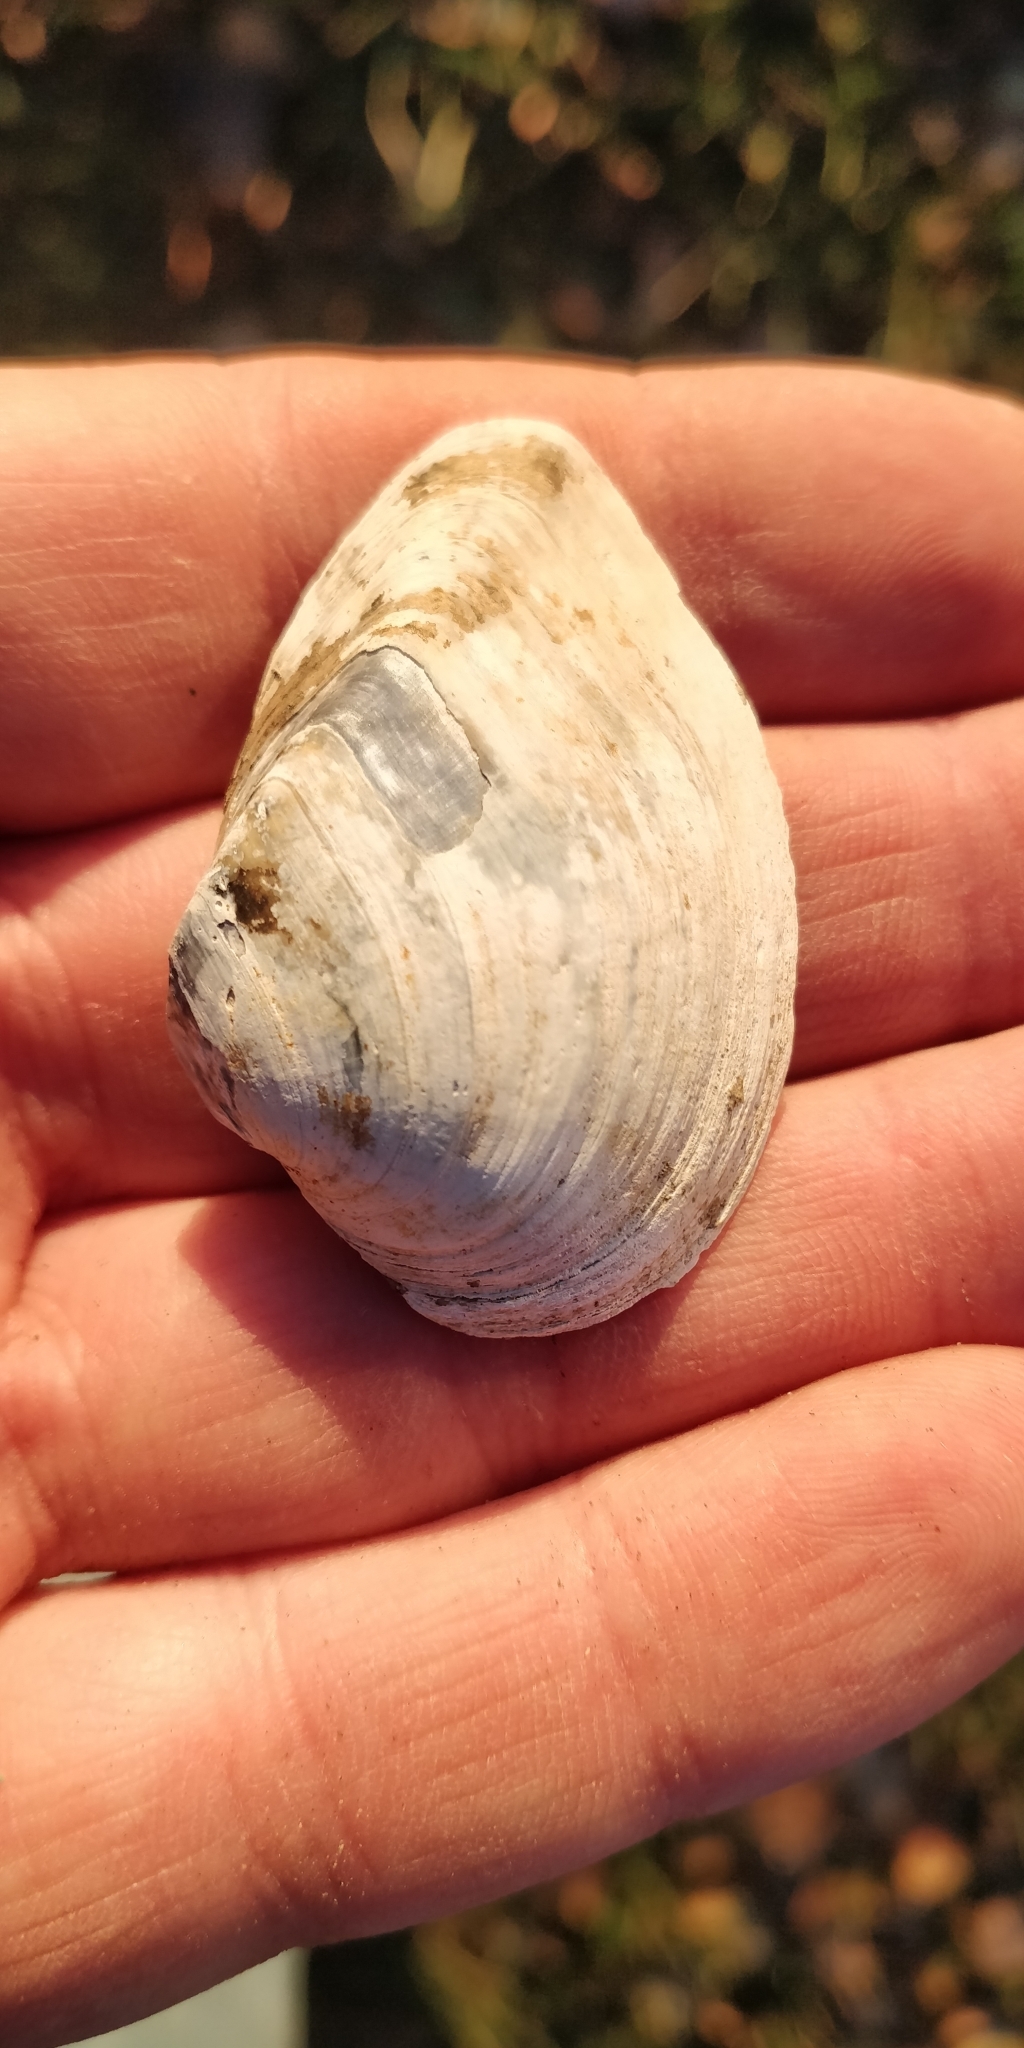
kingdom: Animalia
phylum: Mollusca
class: Bivalvia
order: Unionida
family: Unionidae
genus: Truncilla
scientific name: Truncilla truncata
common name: Deertoe
